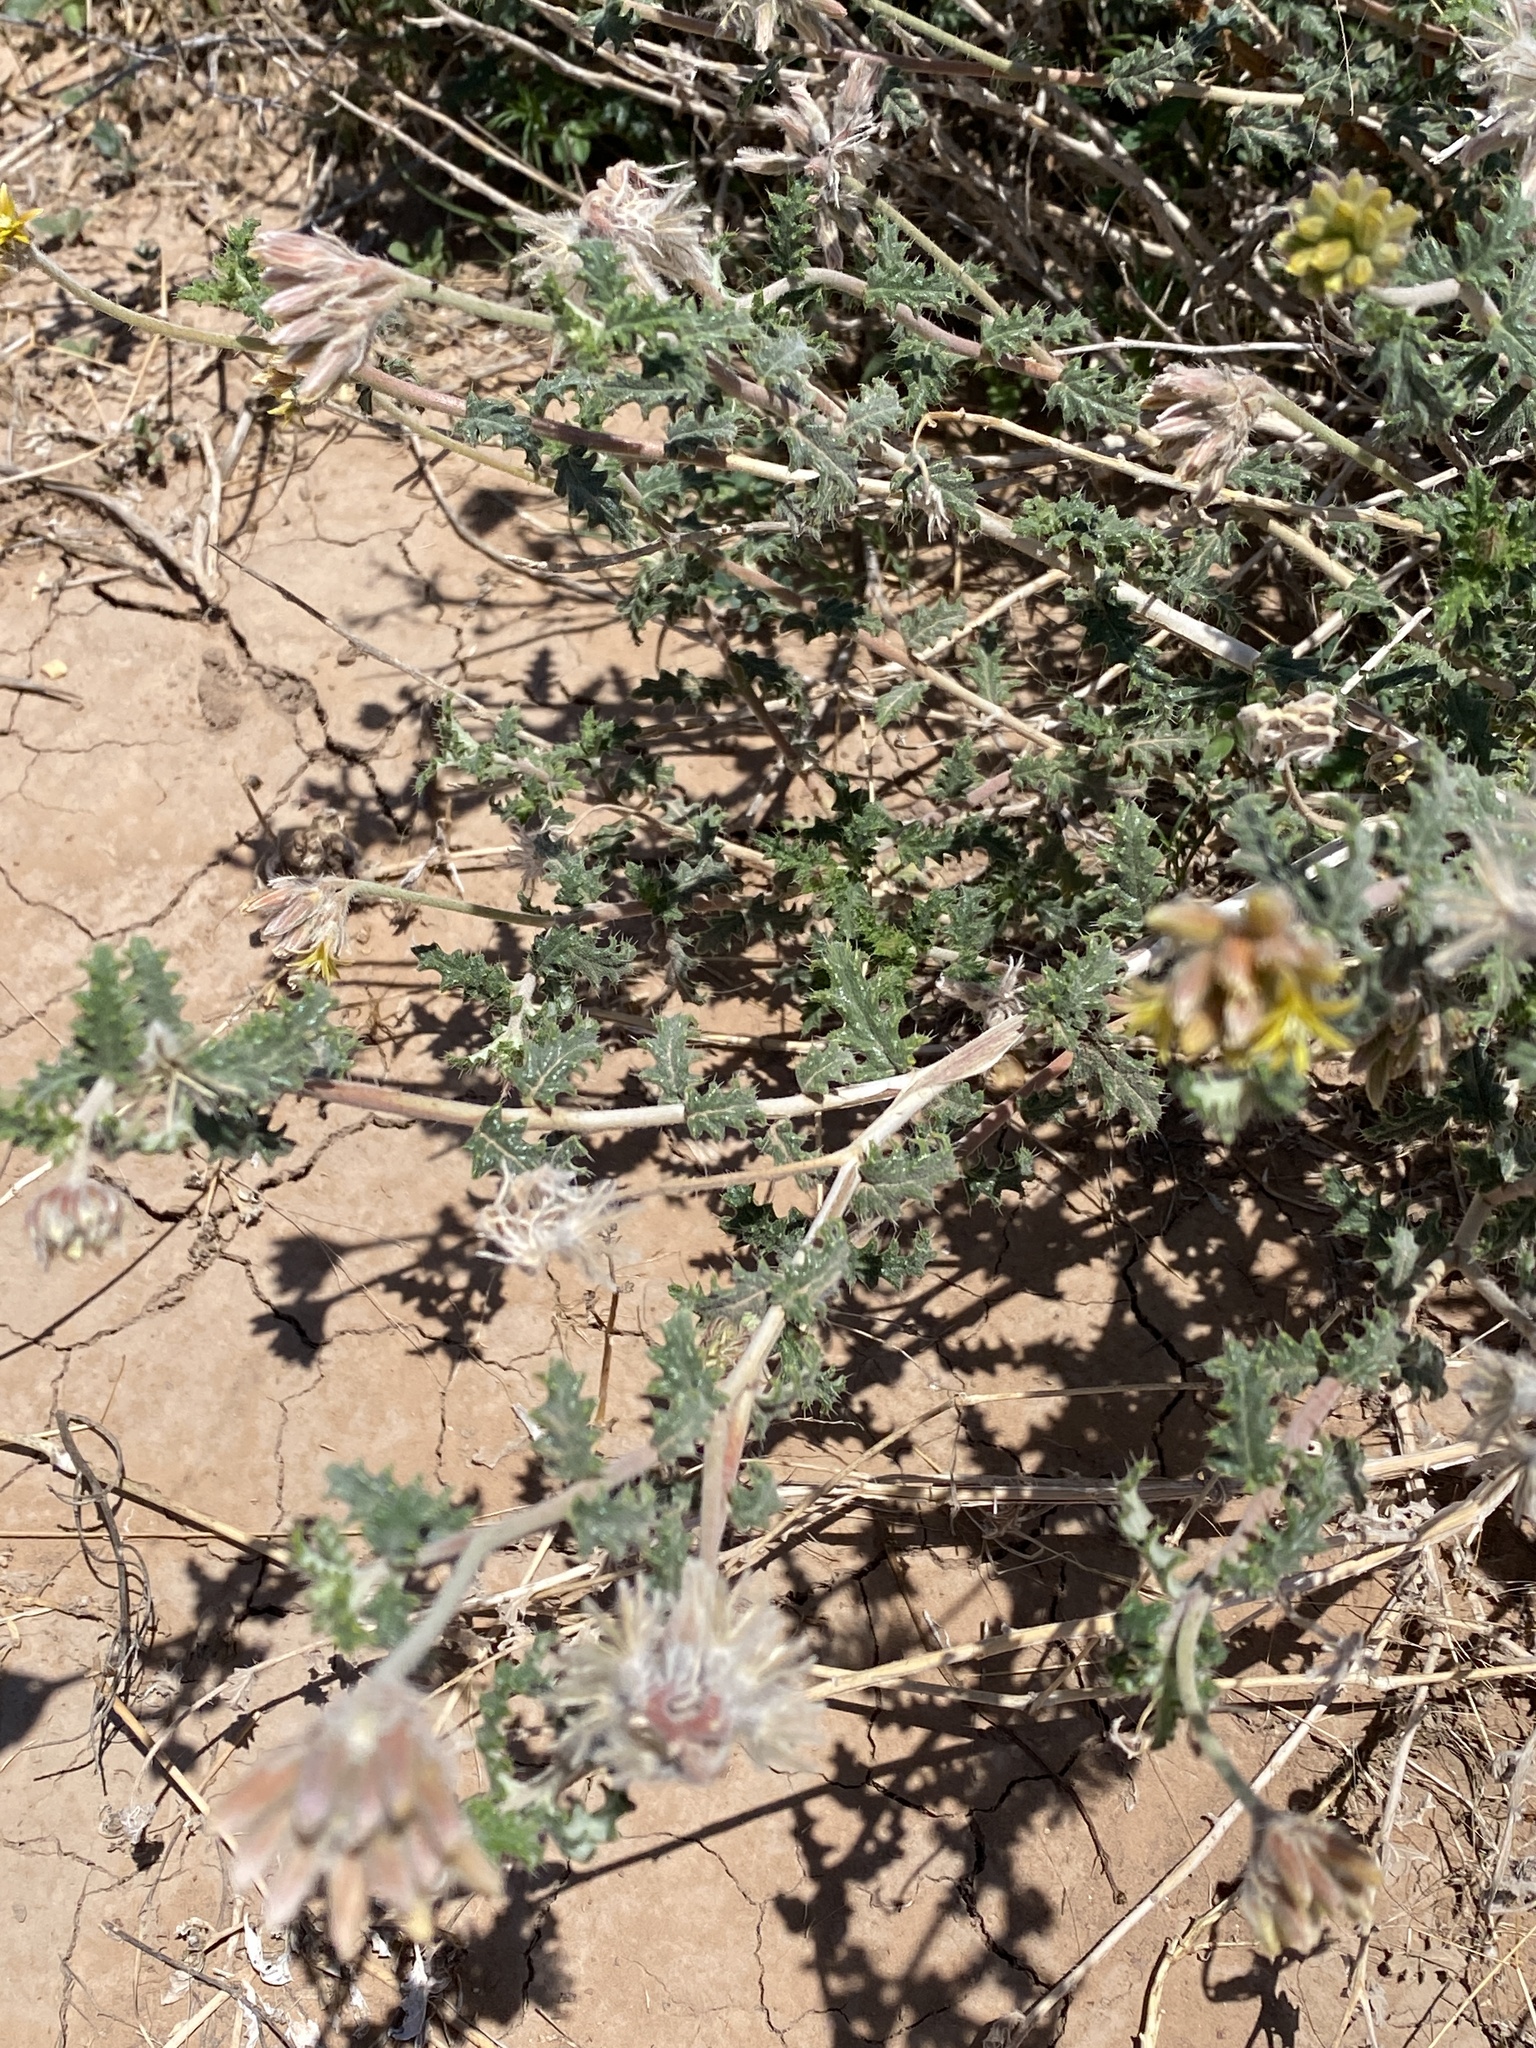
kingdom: Plantae
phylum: Tracheophyta
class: Magnoliopsida
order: Cornales
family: Loasaceae
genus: Cevallia
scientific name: Cevallia sinuata
